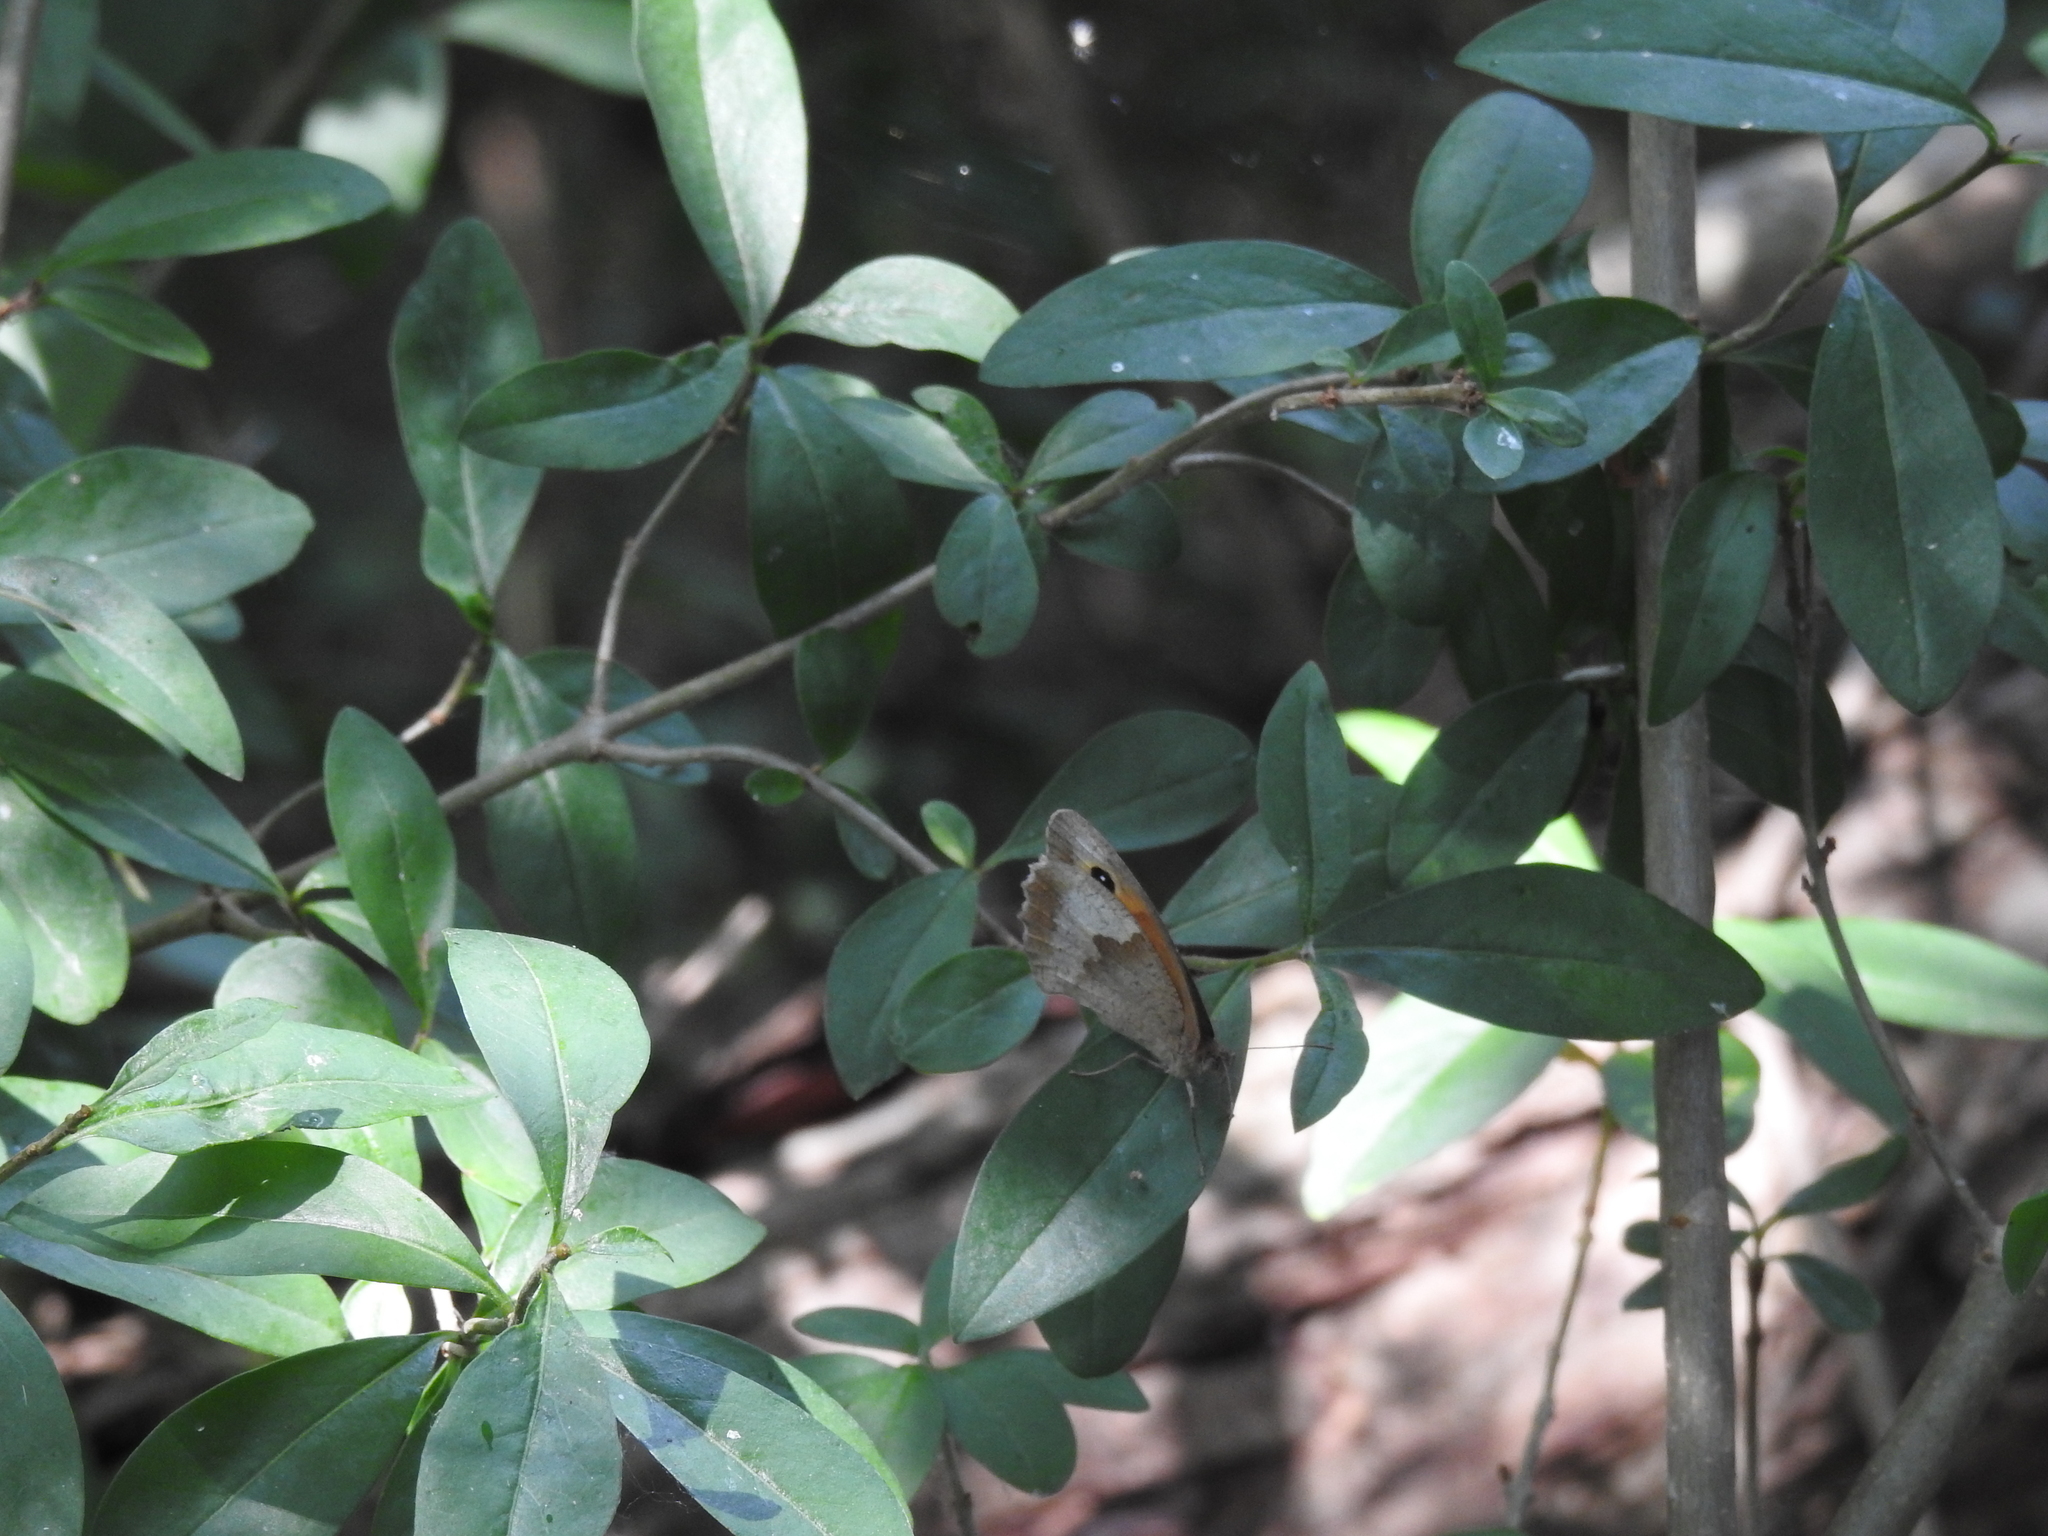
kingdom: Animalia
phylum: Arthropoda
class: Insecta
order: Lepidoptera
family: Nymphalidae
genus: Maniola
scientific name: Maniola jurtina
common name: Meadow brown
